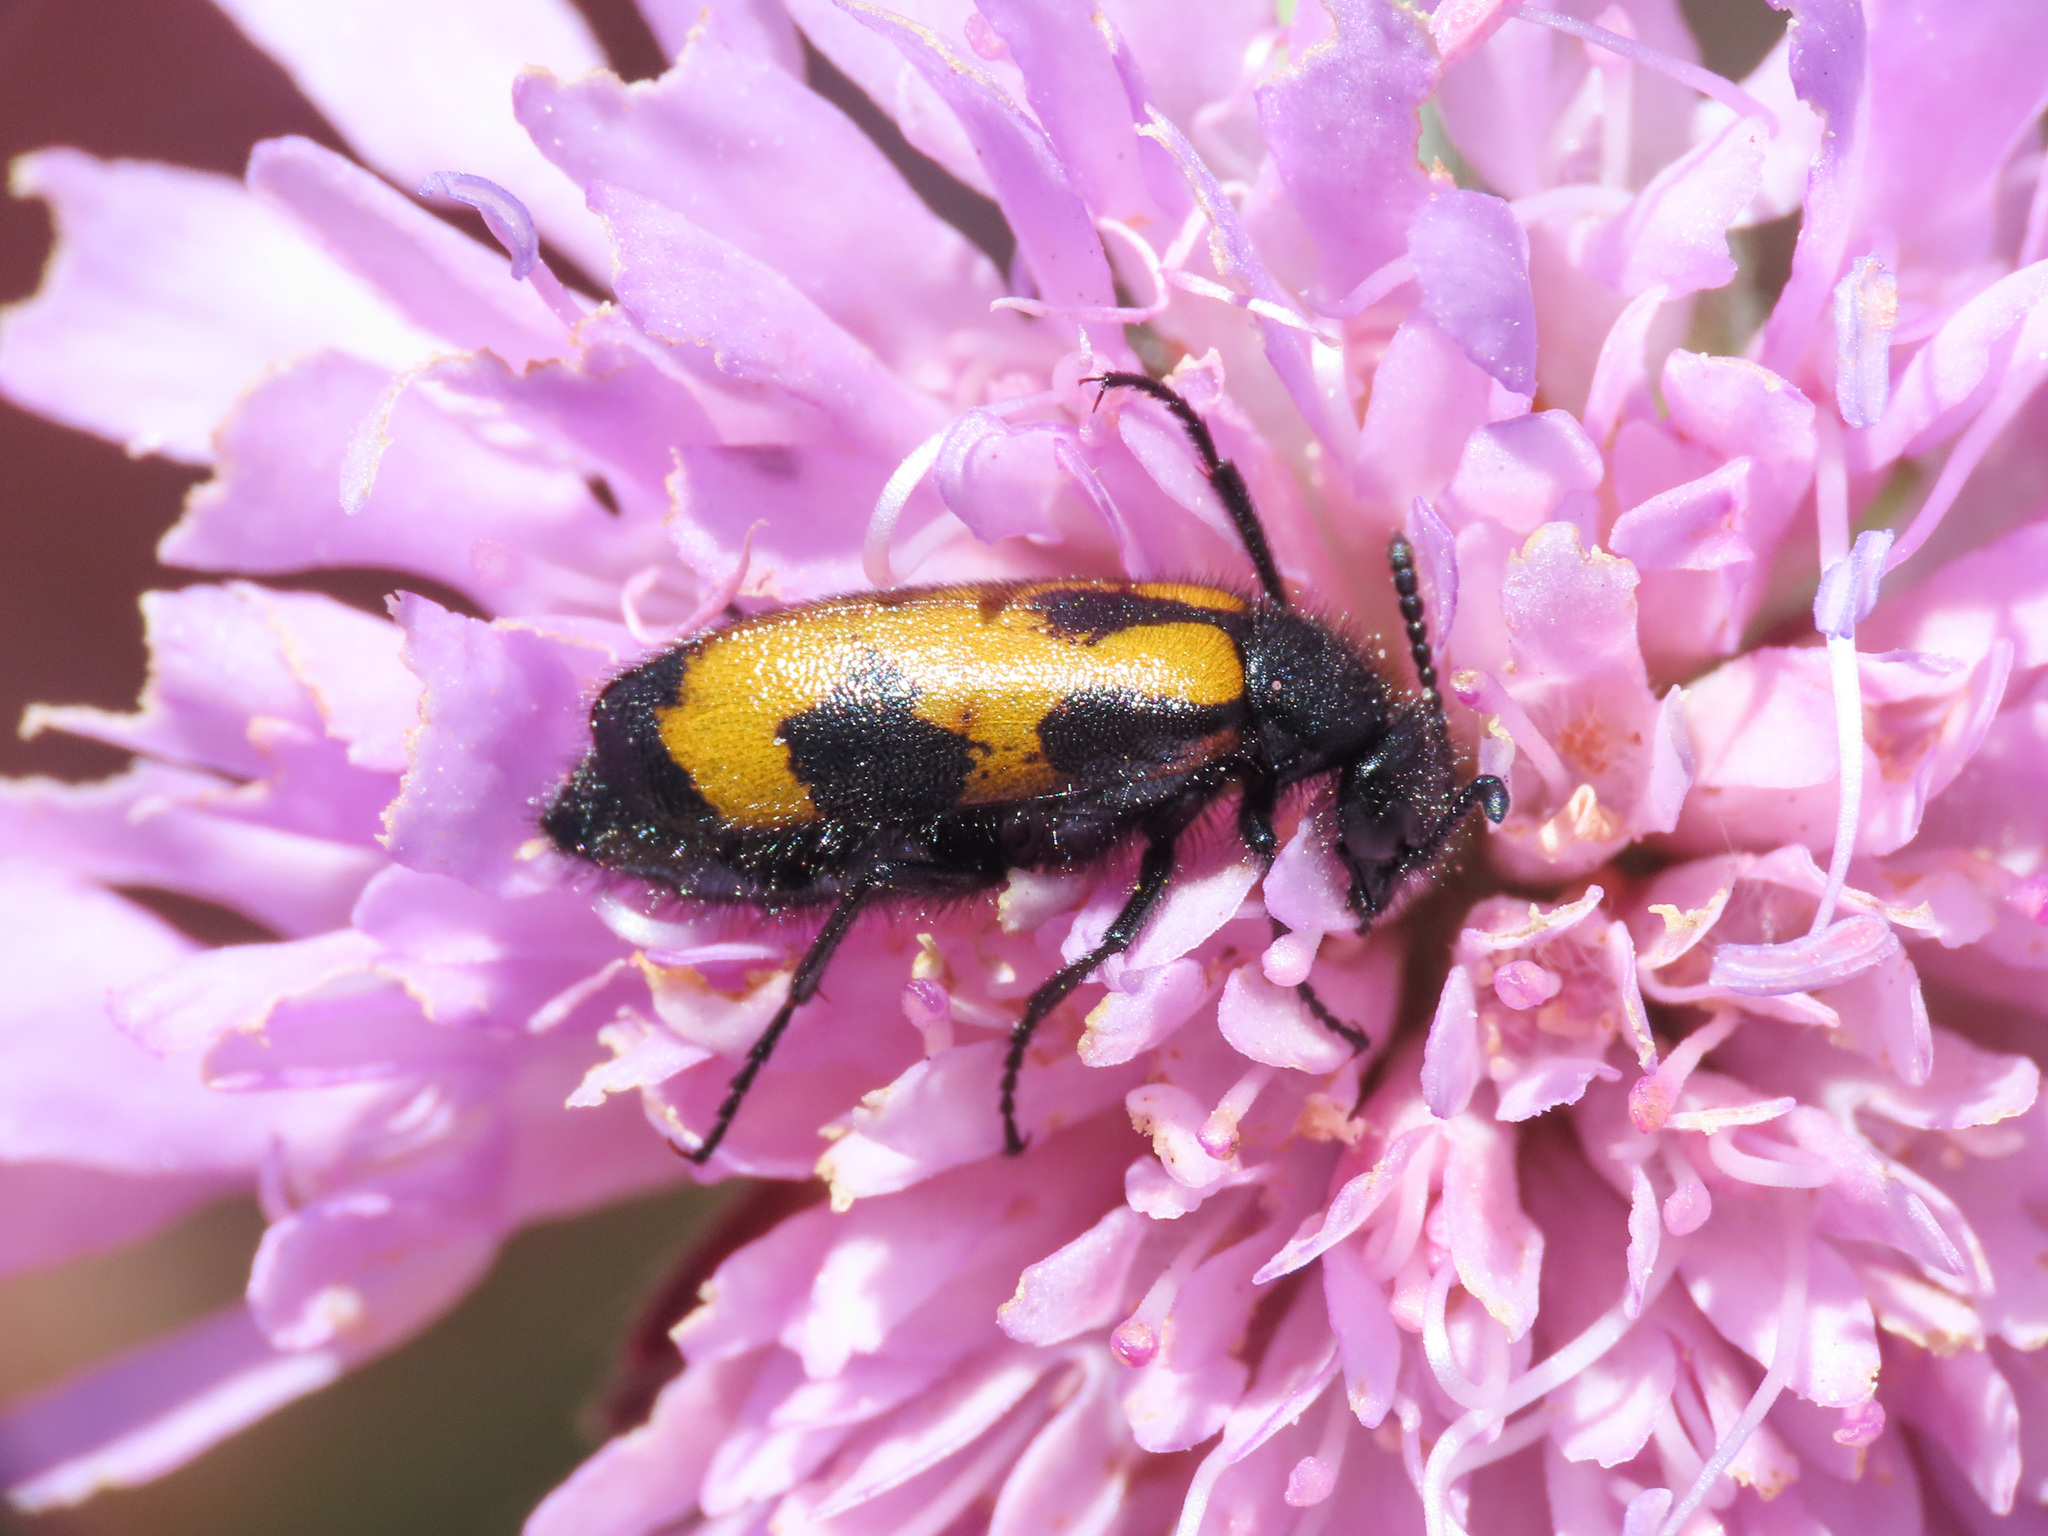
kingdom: Animalia
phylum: Arthropoda
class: Insecta
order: Coleoptera
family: Meloidae
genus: Mylabris
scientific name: Mylabris pusilla
